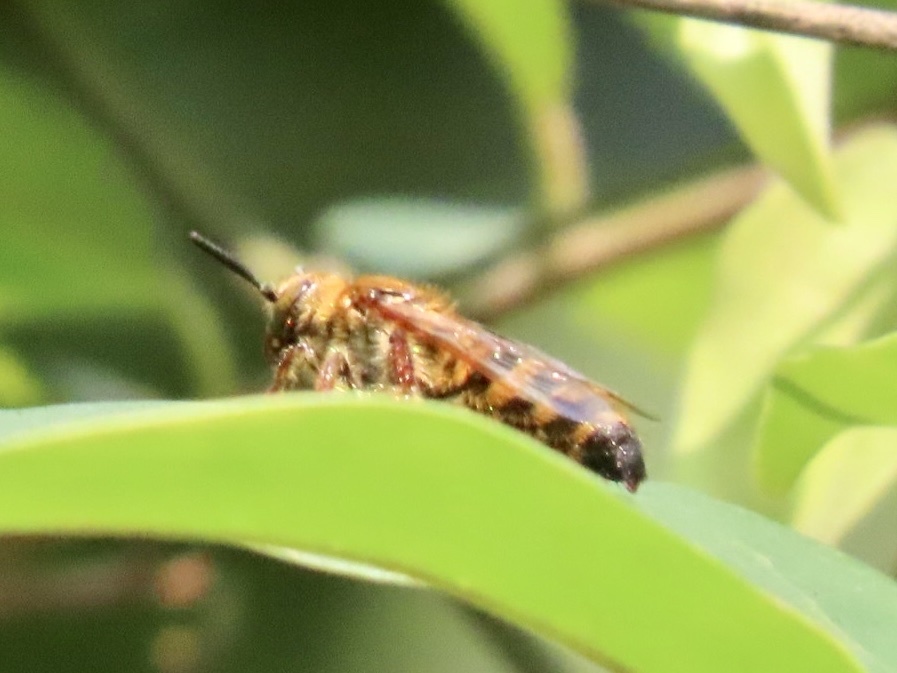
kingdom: Animalia
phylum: Arthropoda
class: Insecta
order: Hymenoptera
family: Scoliidae
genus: Campsomeris
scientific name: Campsomeris phalerata
